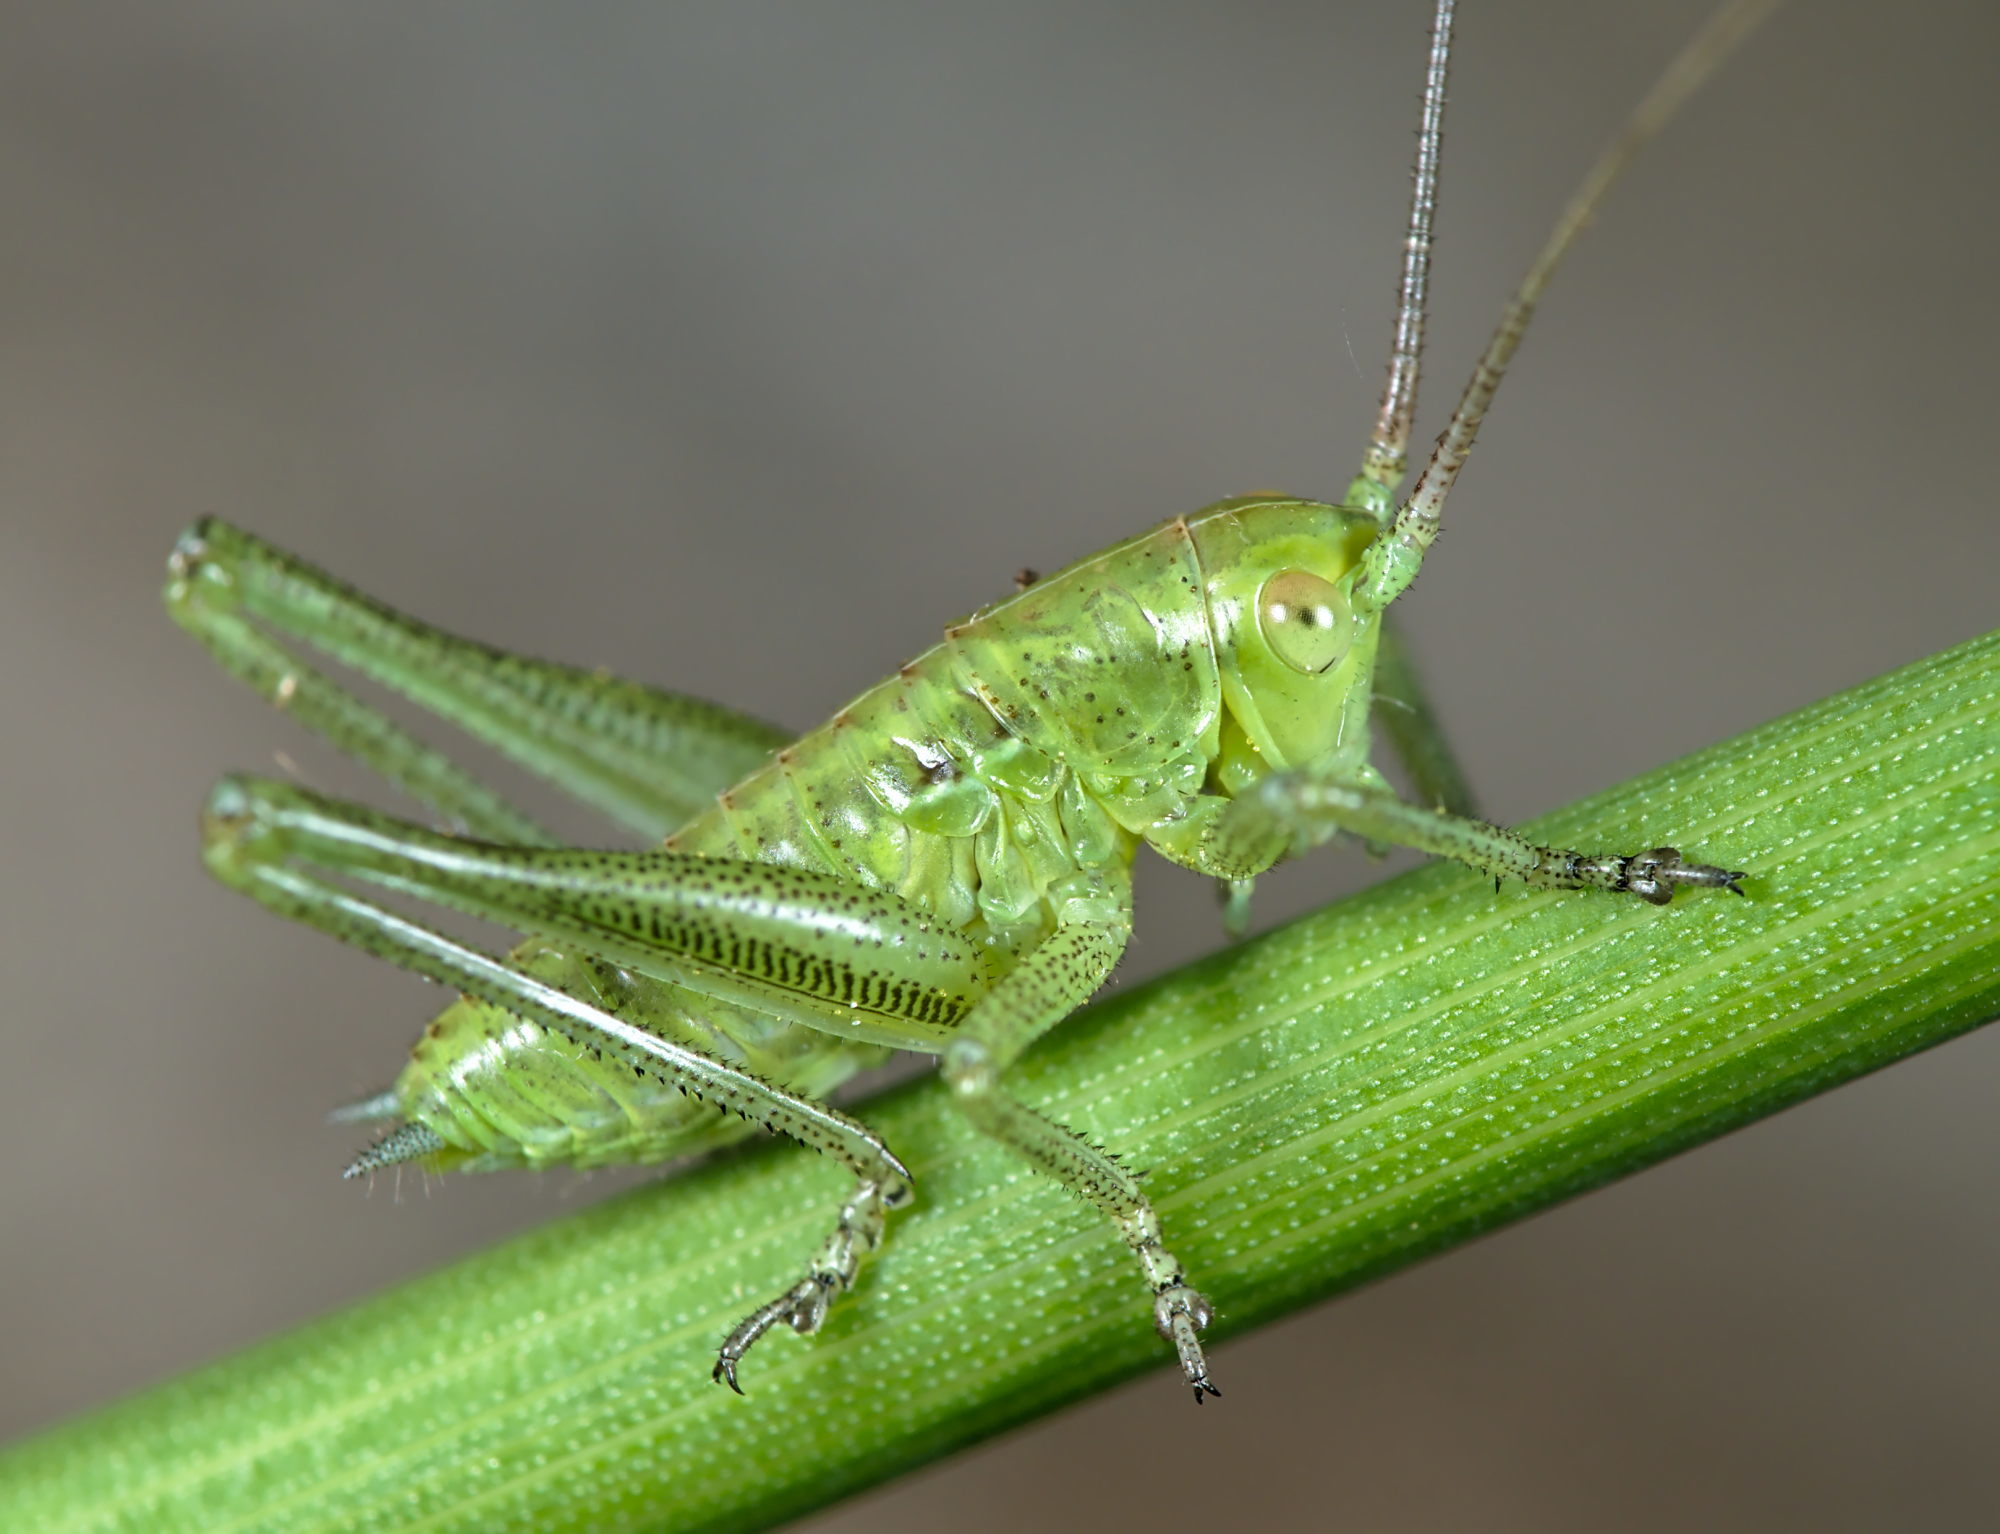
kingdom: Animalia
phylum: Arthropoda
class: Insecta
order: Orthoptera
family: Tettigoniidae
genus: Tettigonia
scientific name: Tettigonia viridissima
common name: Great green bush-cricket
